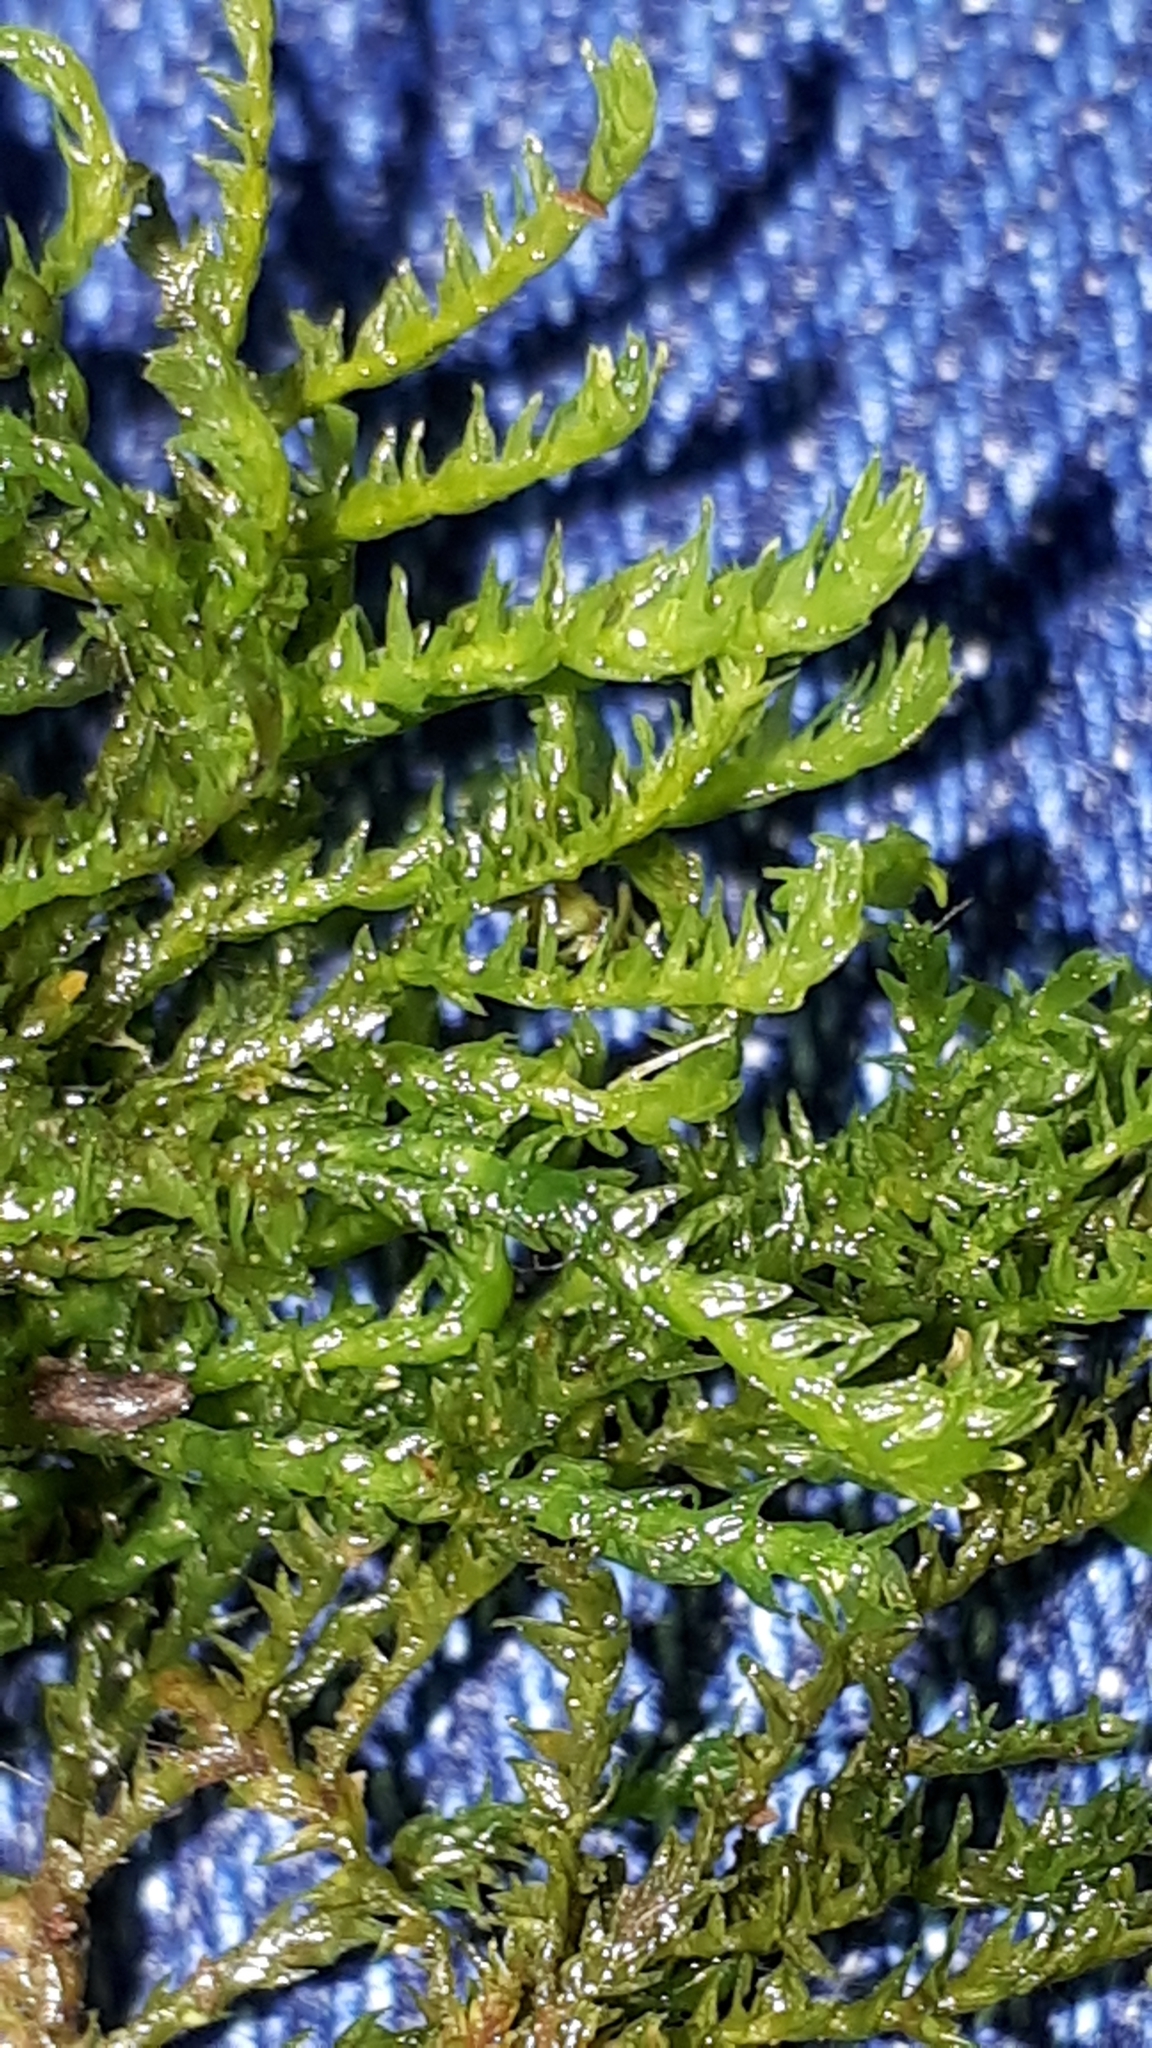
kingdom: Plantae
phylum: Bryophyta
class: Bryopsida
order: Hypnales
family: Neckeraceae
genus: Pseudanomodon
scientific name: Pseudanomodon attenuatus
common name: Tree-skirt moss
